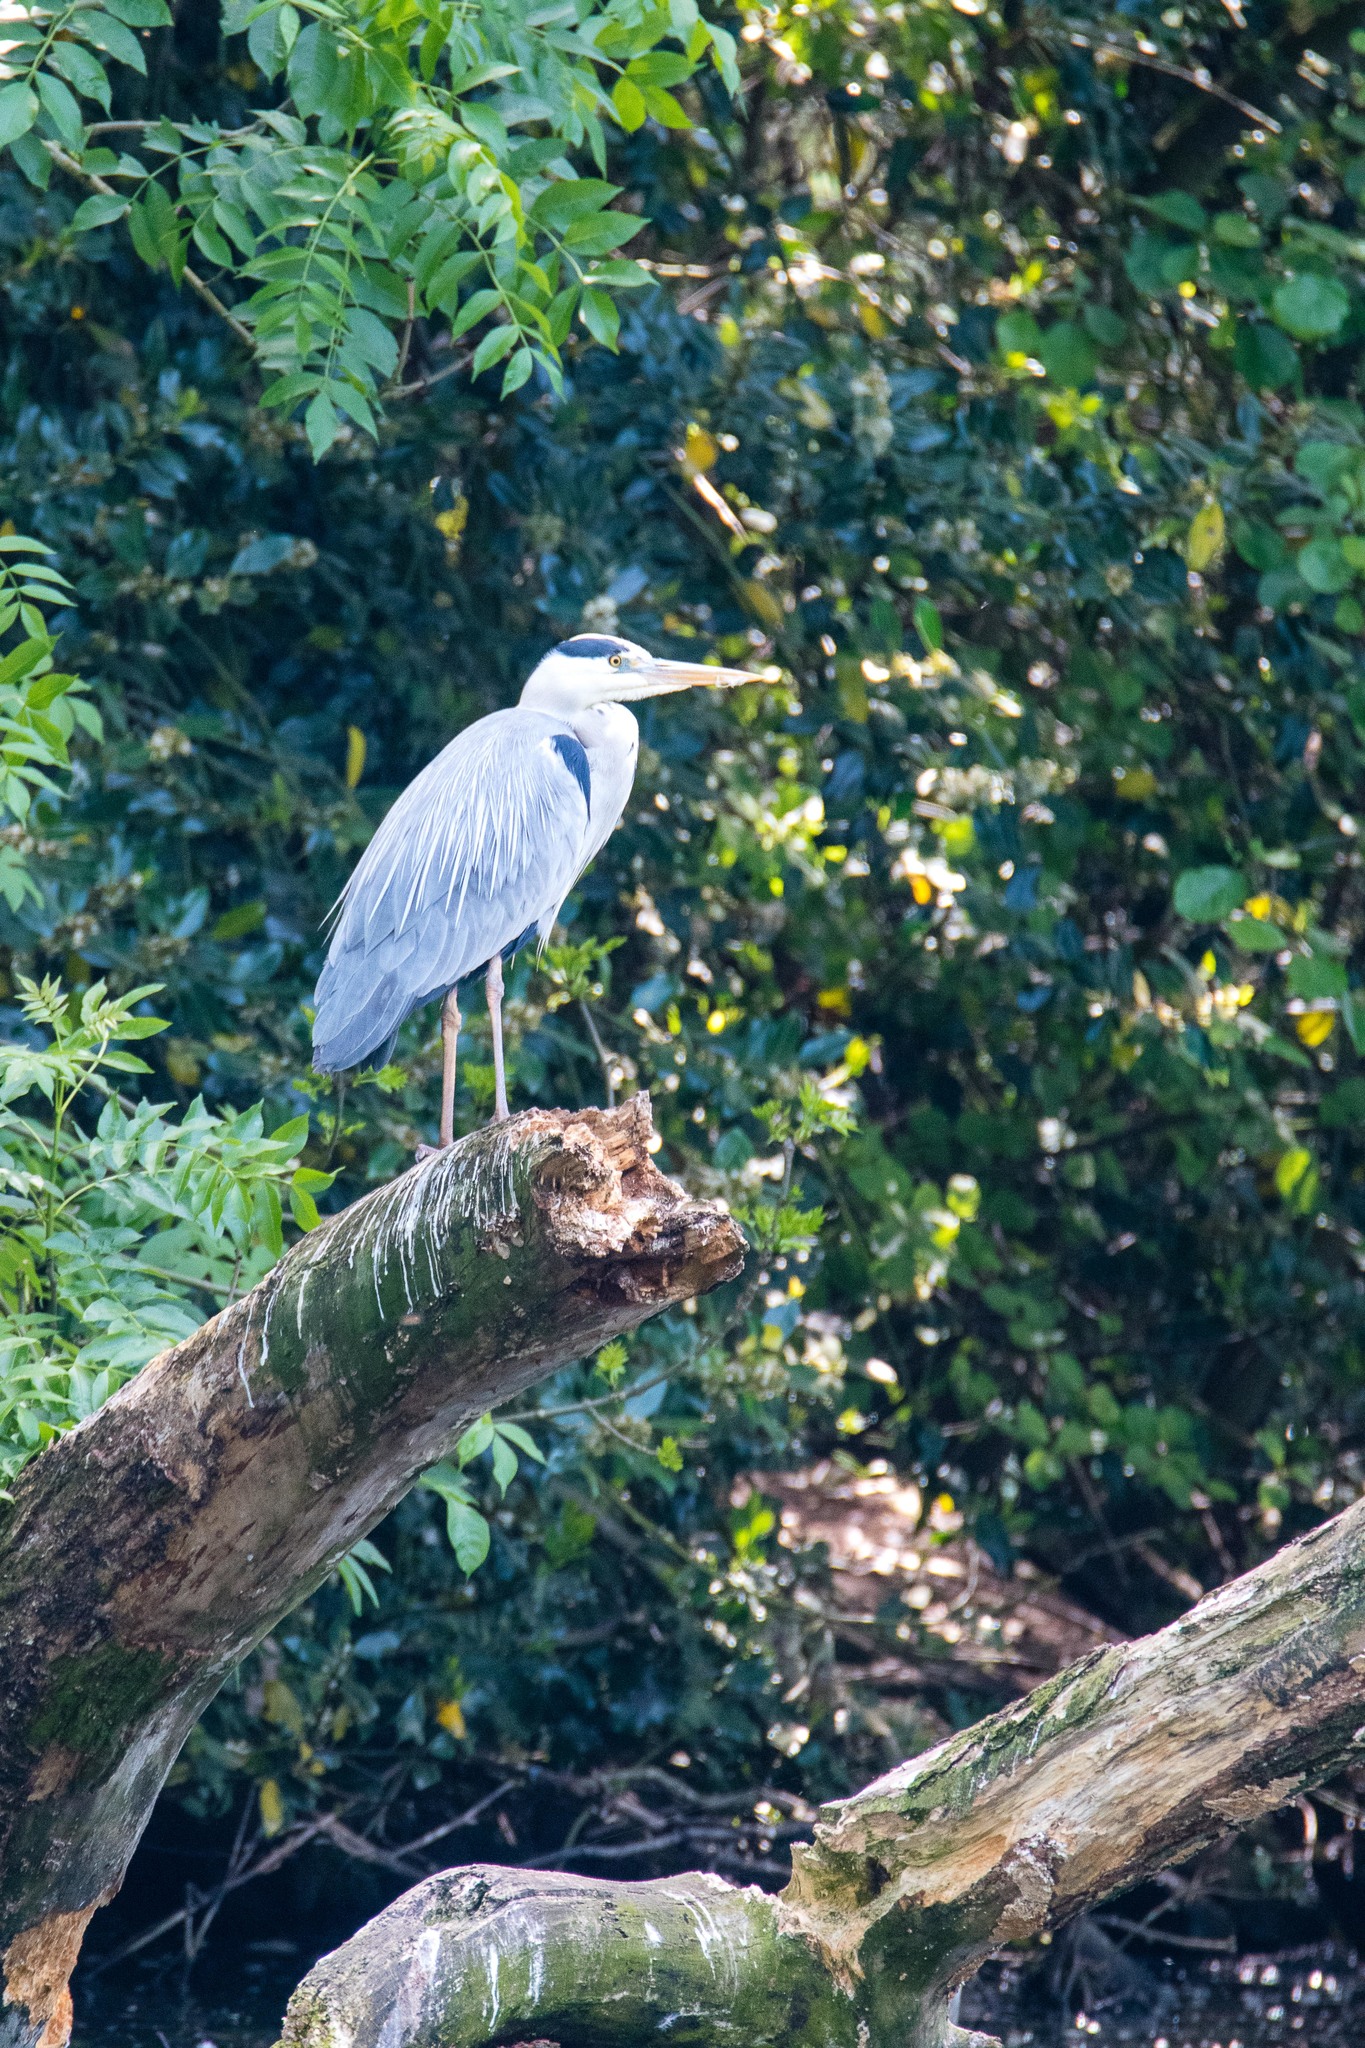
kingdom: Animalia
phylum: Chordata
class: Aves
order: Pelecaniformes
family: Ardeidae
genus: Ardea
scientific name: Ardea cinerea
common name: Grey heron
